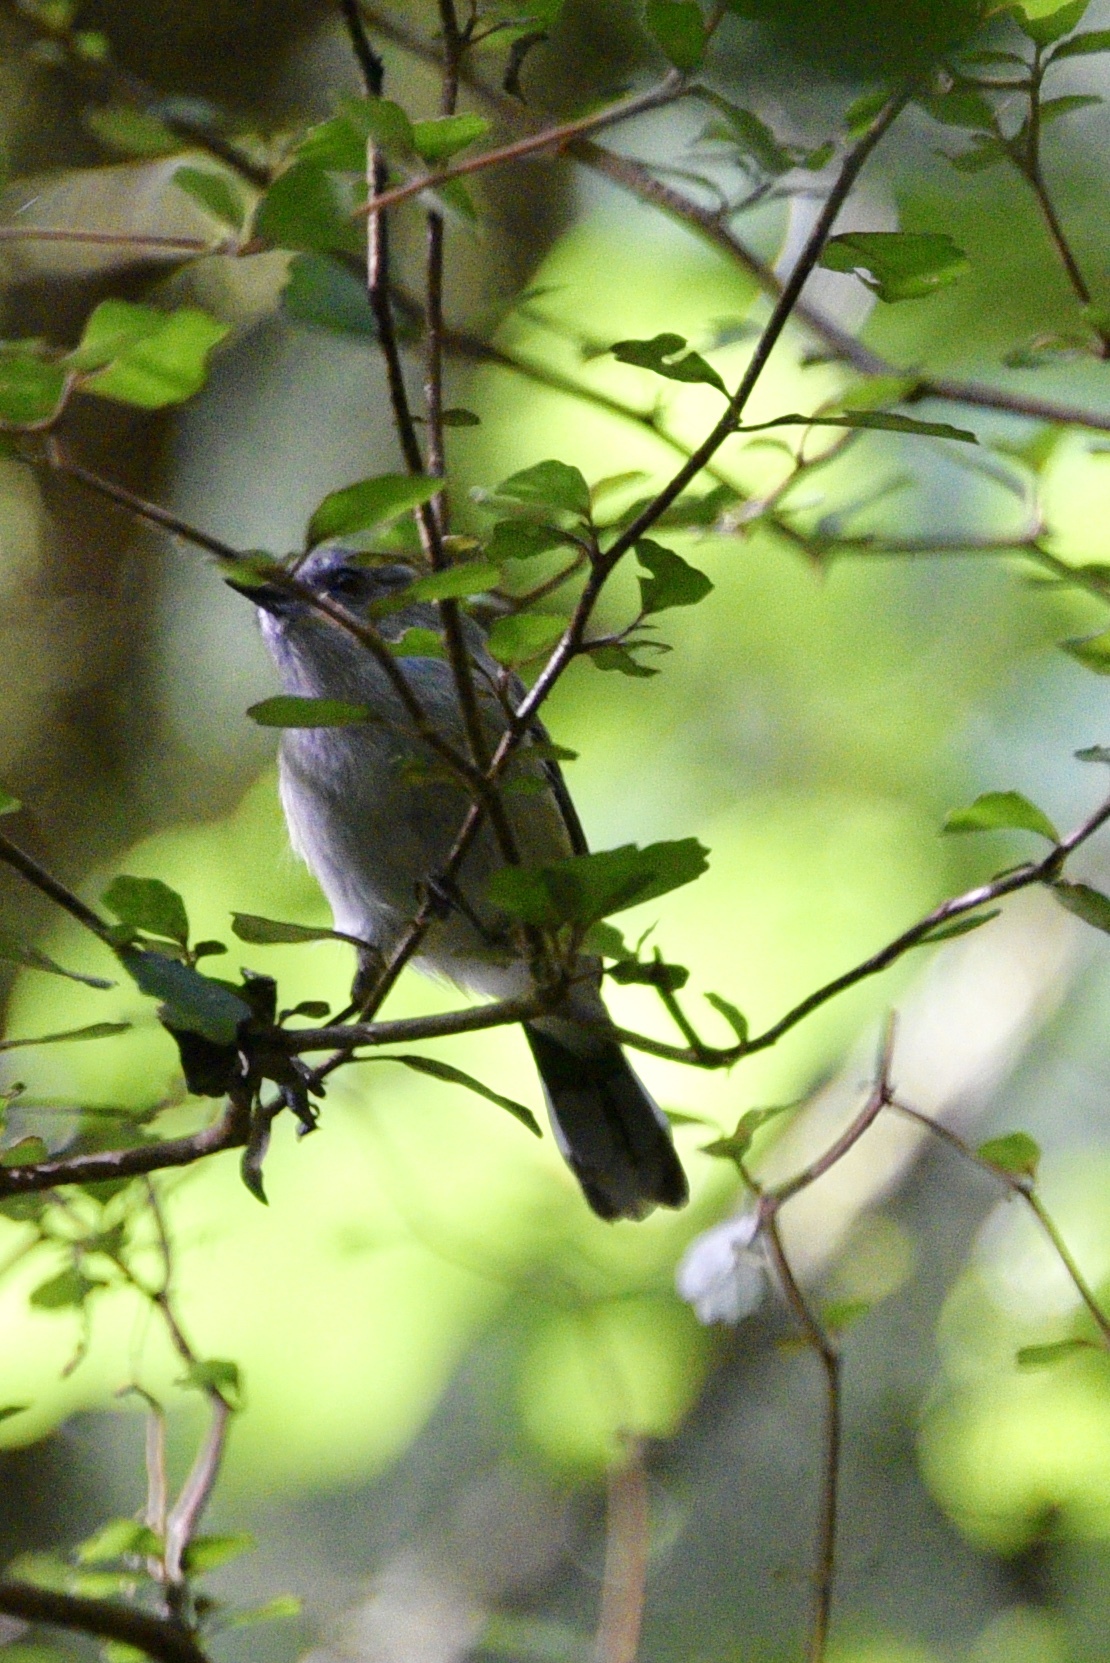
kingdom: Animalia
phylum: Chordata
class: Aves
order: Passeriformes
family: Acanthizidae
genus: Gerygone
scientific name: Gerygone igata
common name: Grey gerygone
